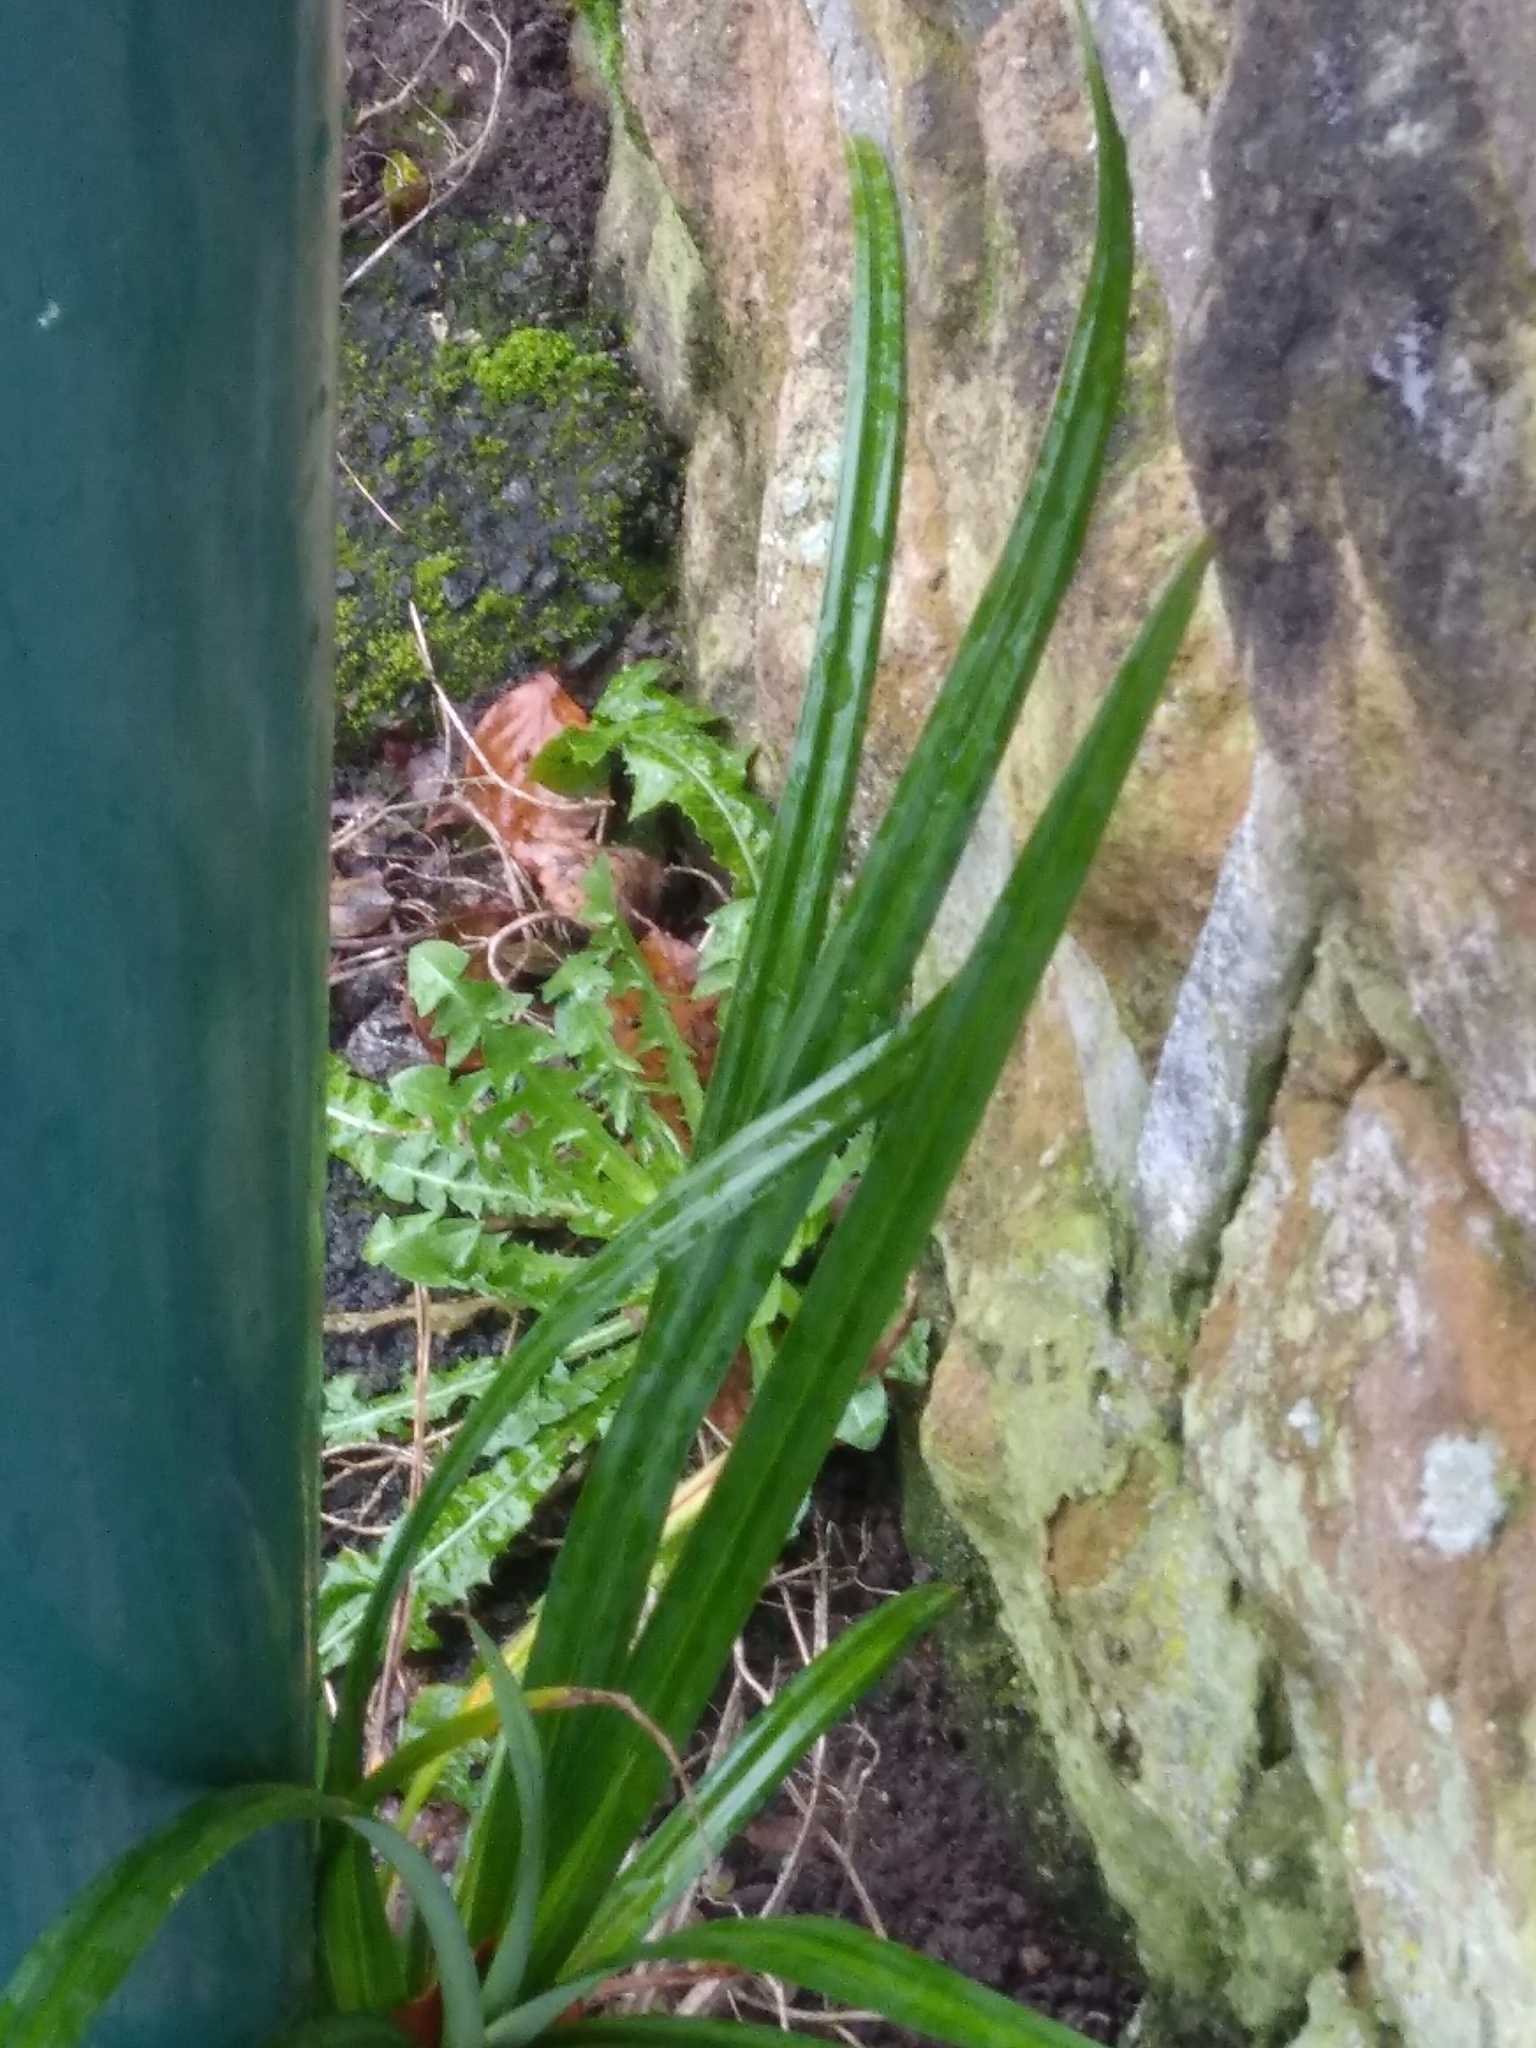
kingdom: Plantae
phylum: Tracheophyta
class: Liliopsida
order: Poales
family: Cyperaceae
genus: Carex
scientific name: Carex pendula
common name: Pendulous sedge
